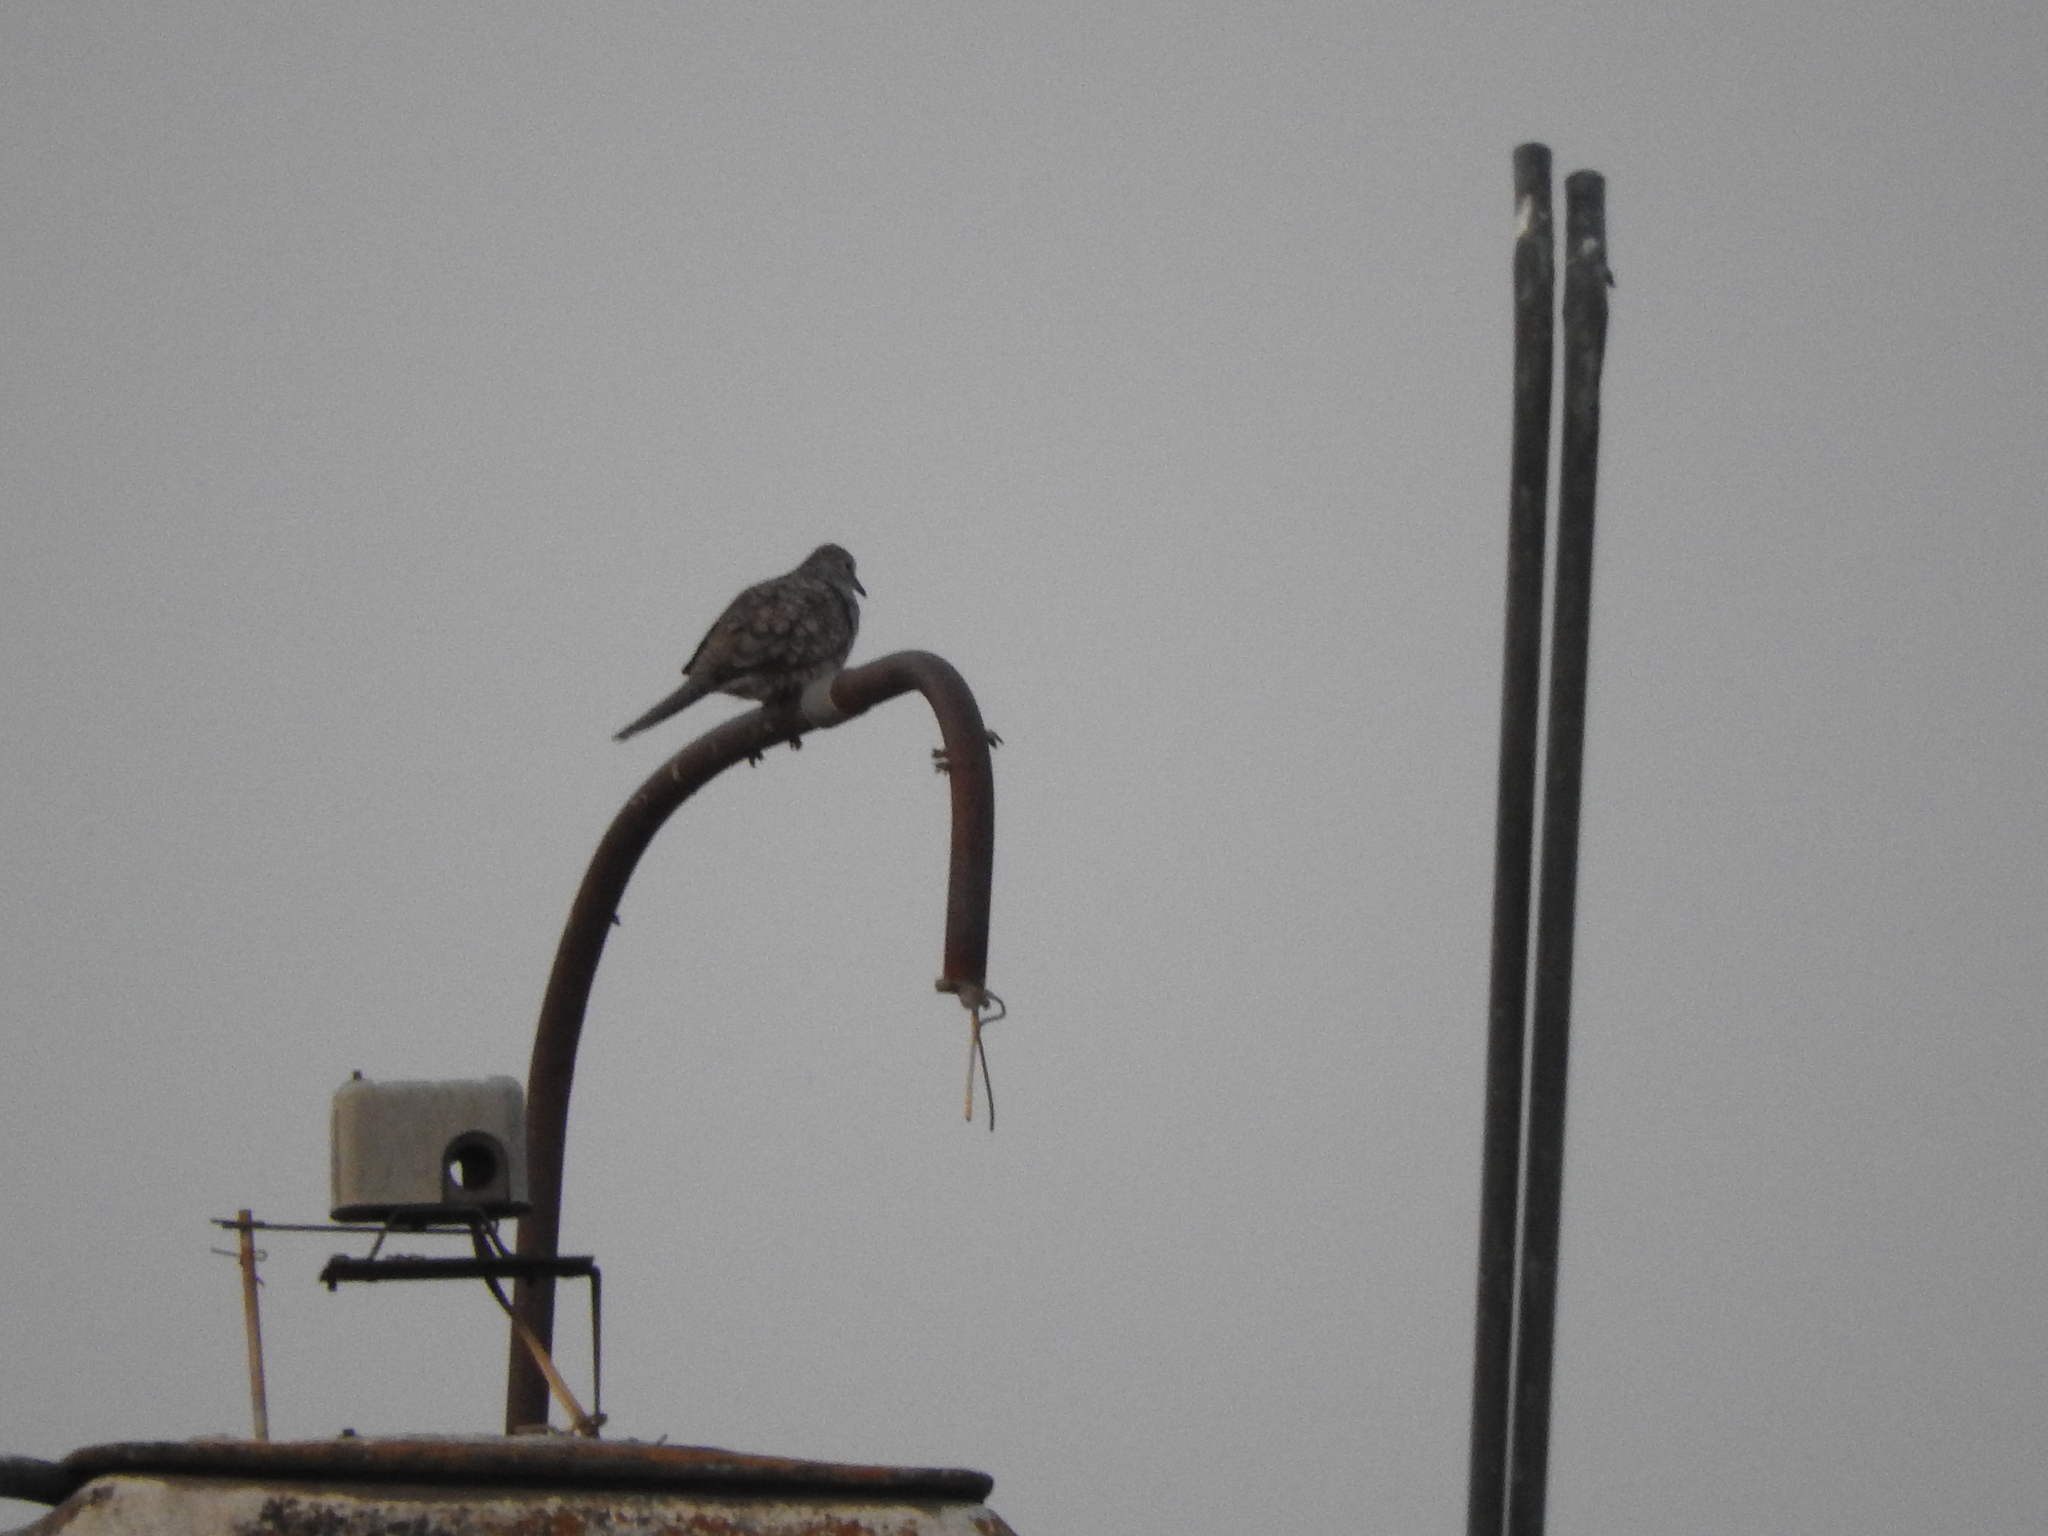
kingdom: Animalia
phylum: Chordata
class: Aves
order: Columbiformes
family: Columbidae
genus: Columbina
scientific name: Columbina inca
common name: Inca dove
